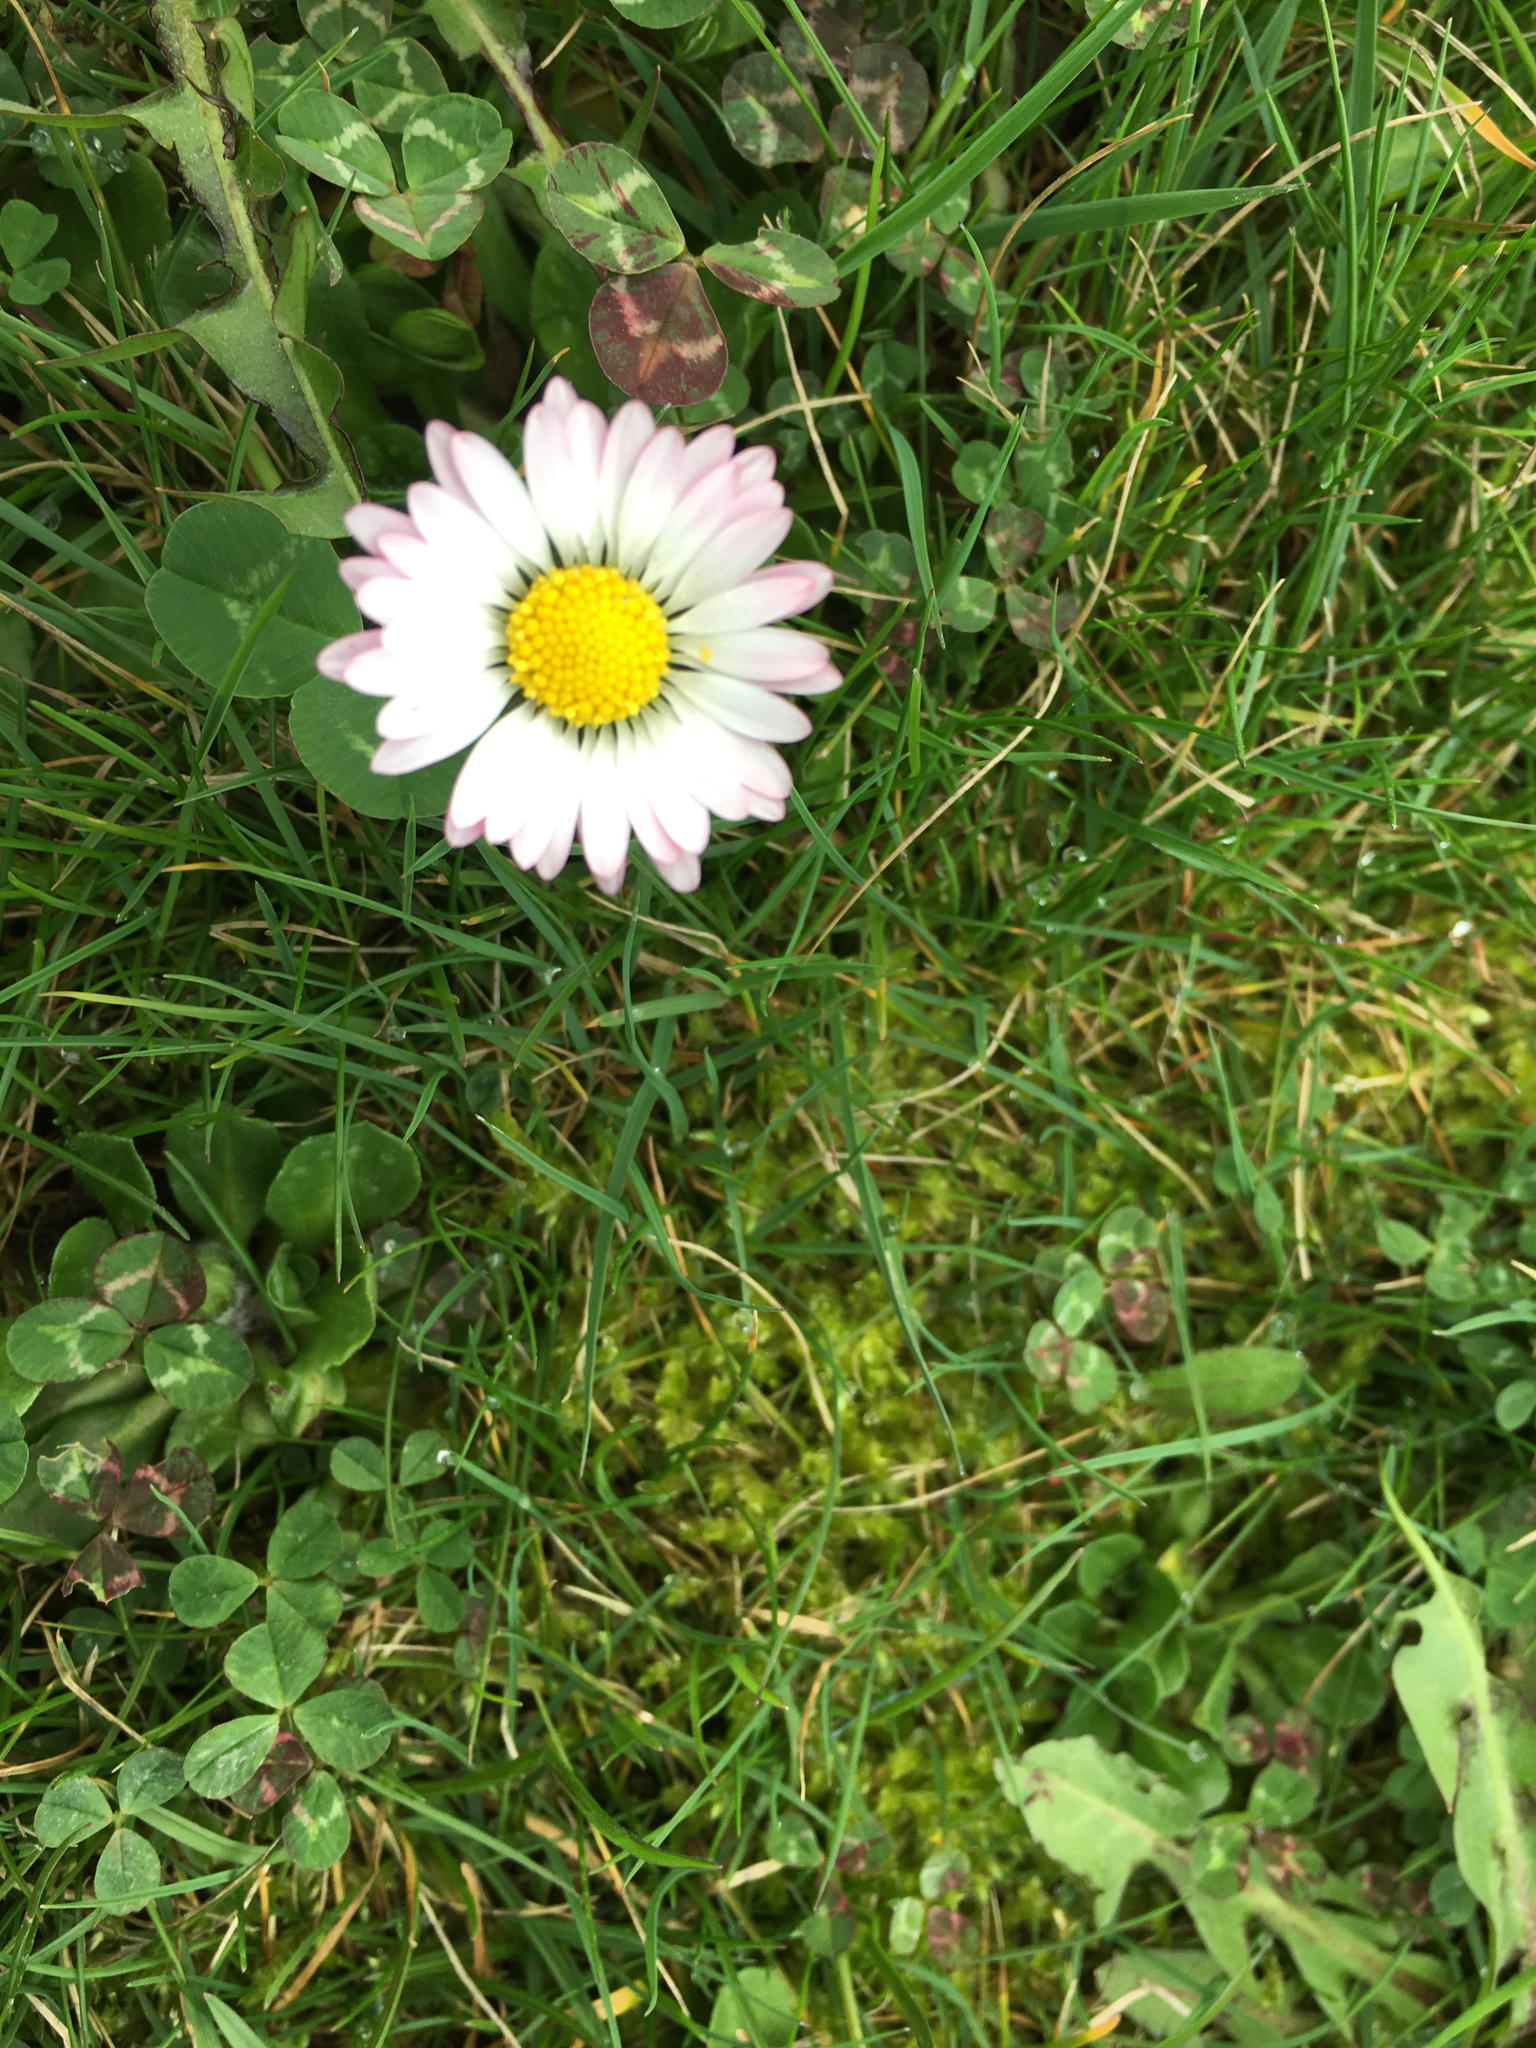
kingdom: Plantae
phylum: Tracheophyta
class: Magnoliopsida
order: Asterales
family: Asteraceae
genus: Bellis
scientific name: Bellis perennis
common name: Lawndaisy
